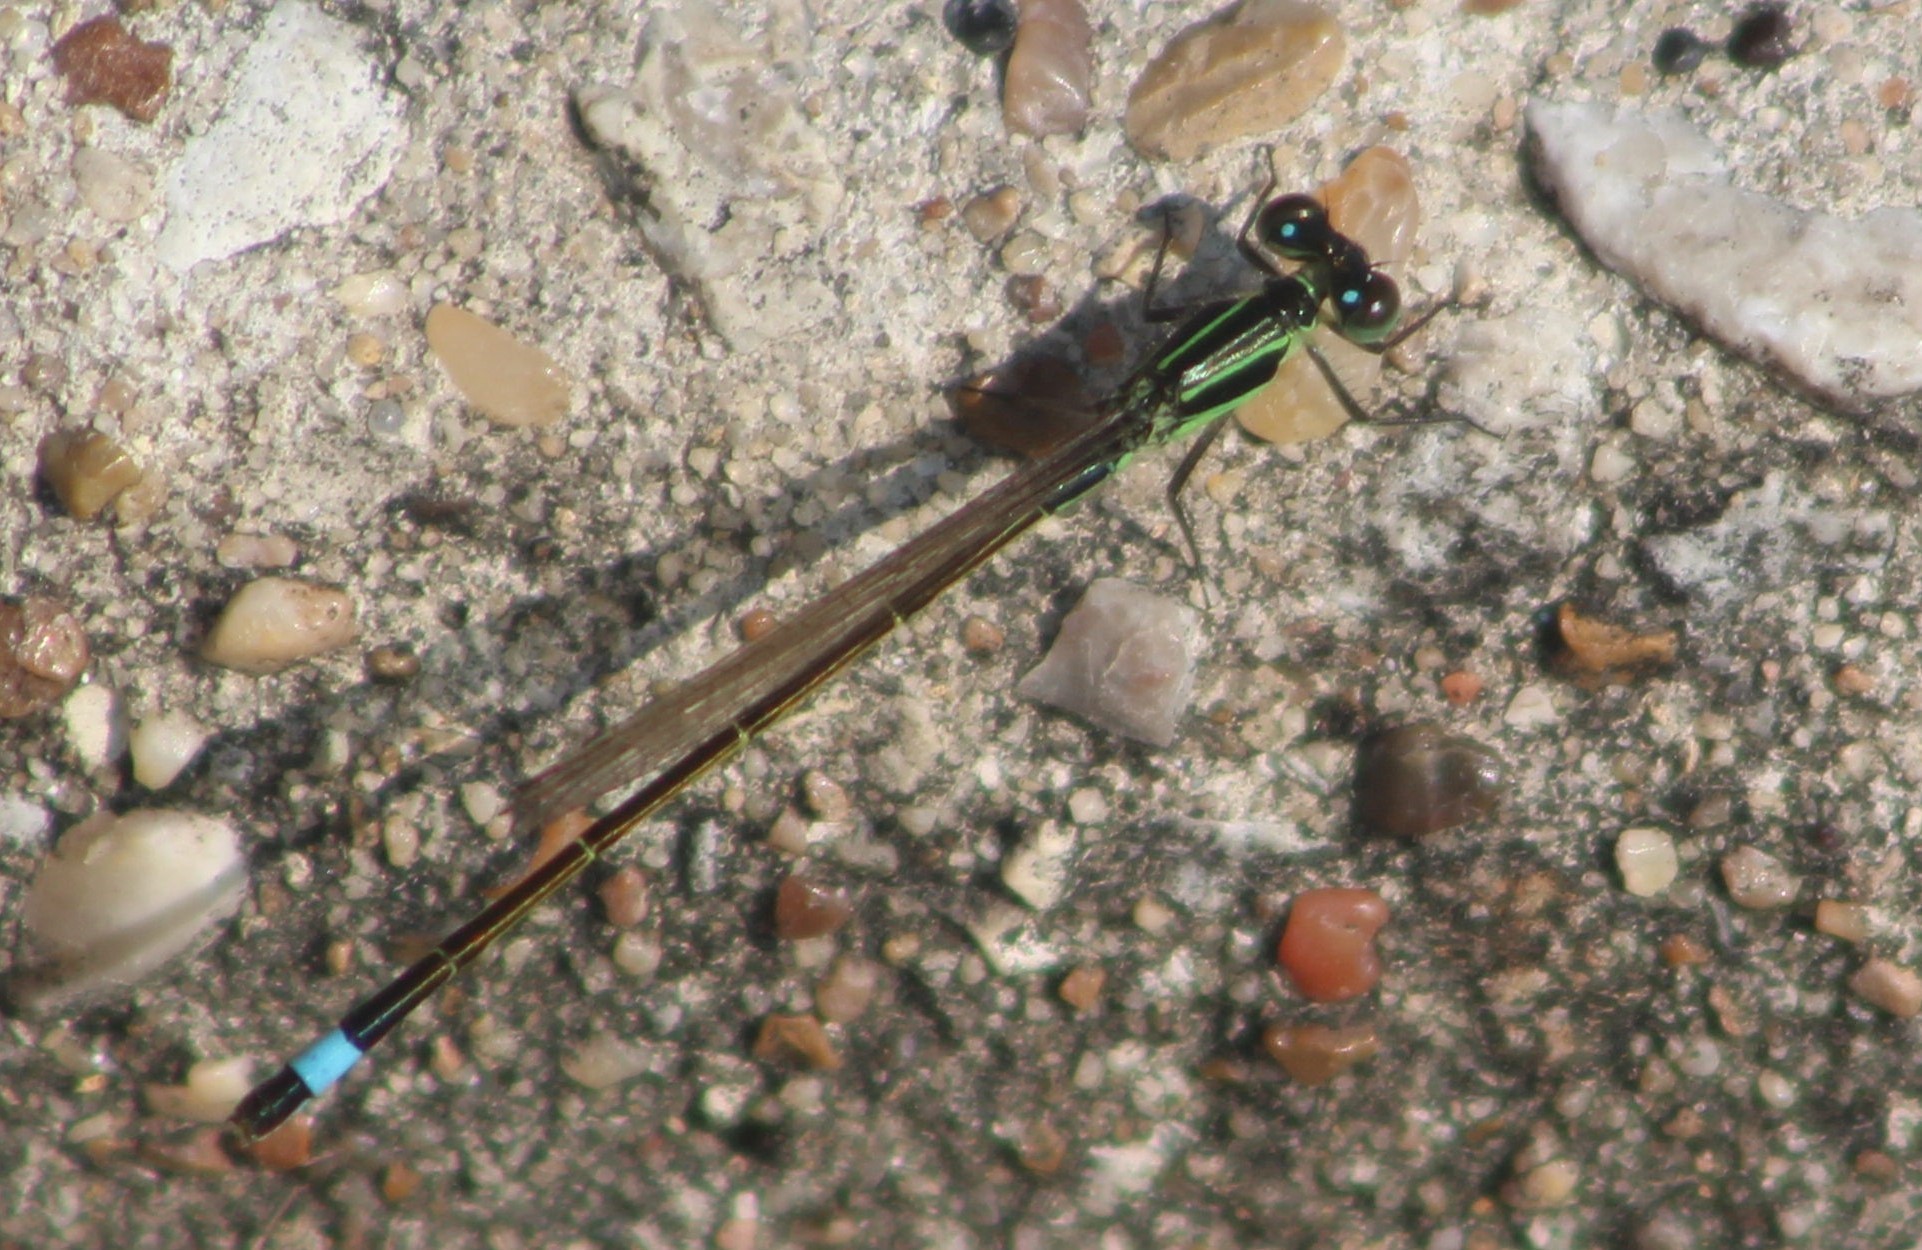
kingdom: Animalia
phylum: Arthropoda
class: Insecta
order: Odonata
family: Coenagrionidae
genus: Ischnura
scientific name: Ischnura ramburii
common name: Rambur's forktail
